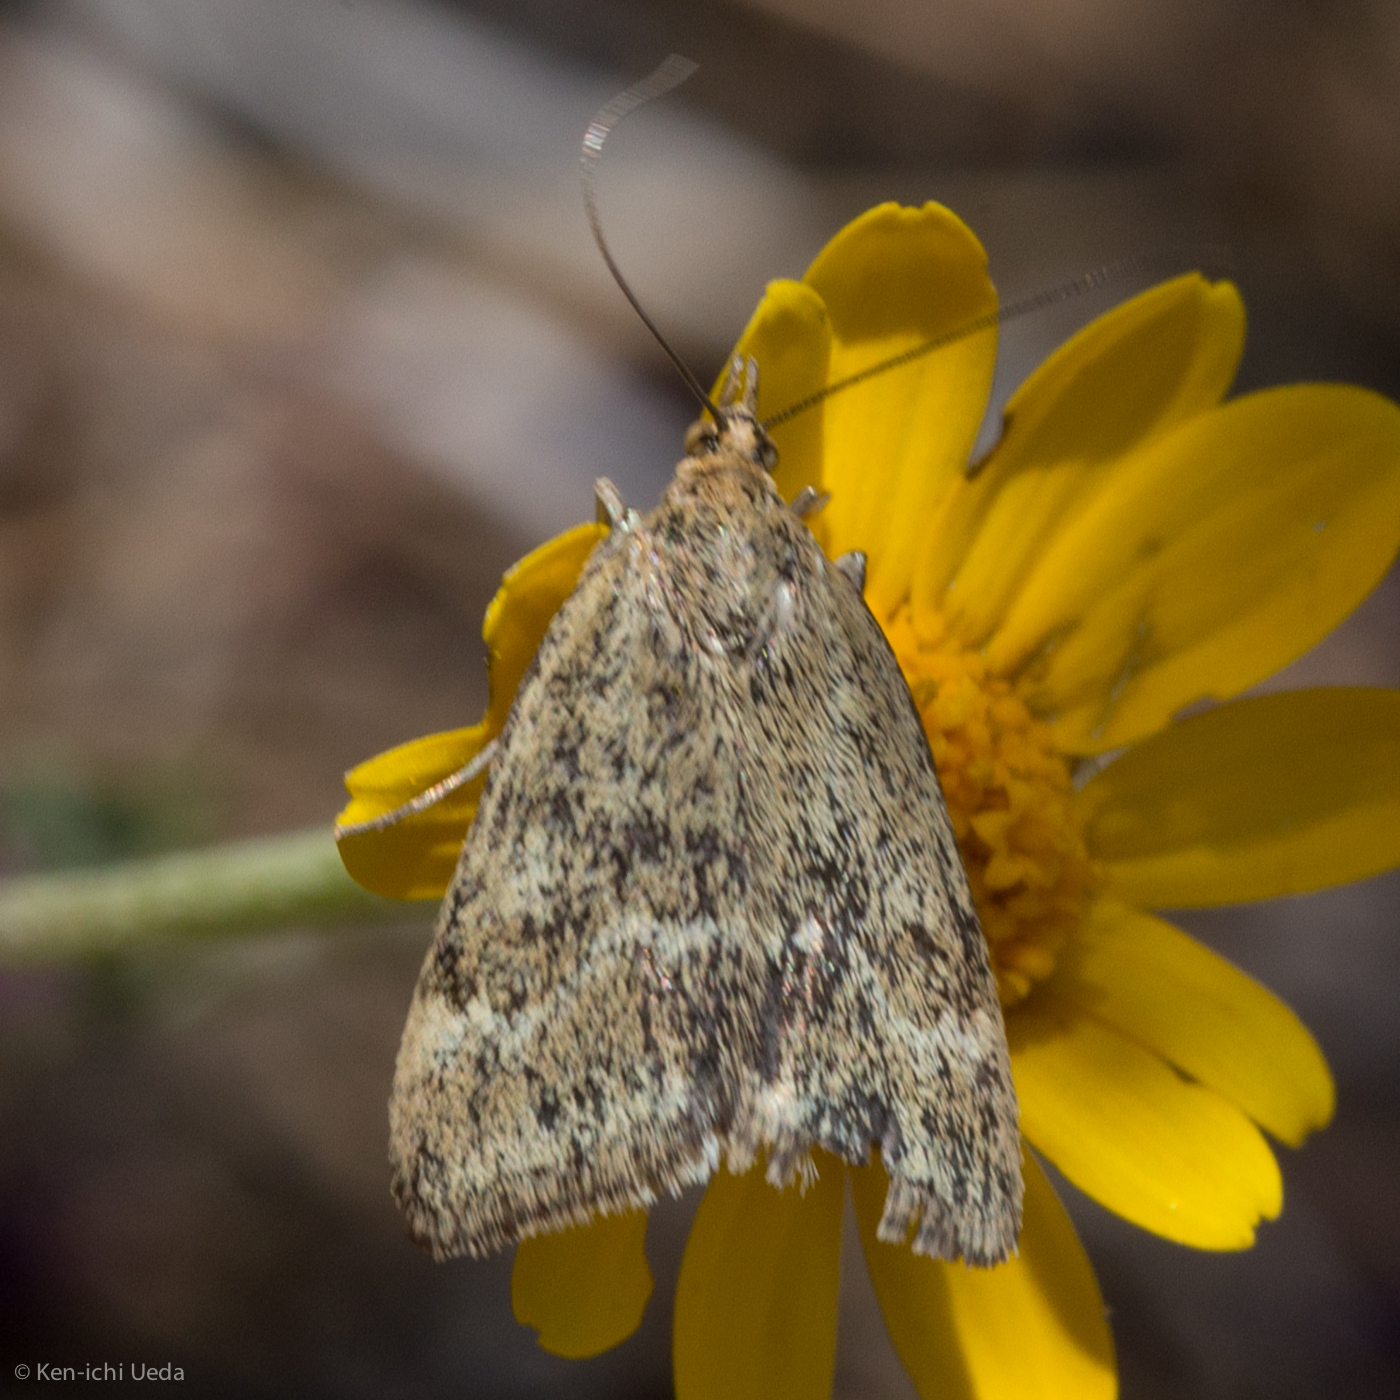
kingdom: Animalia
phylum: Arthropoda
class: Insecta
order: Lepidoptera
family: Crambidae
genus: Pyrausta
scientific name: Pyrausta unifascialis
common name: One-banded pyrausta
